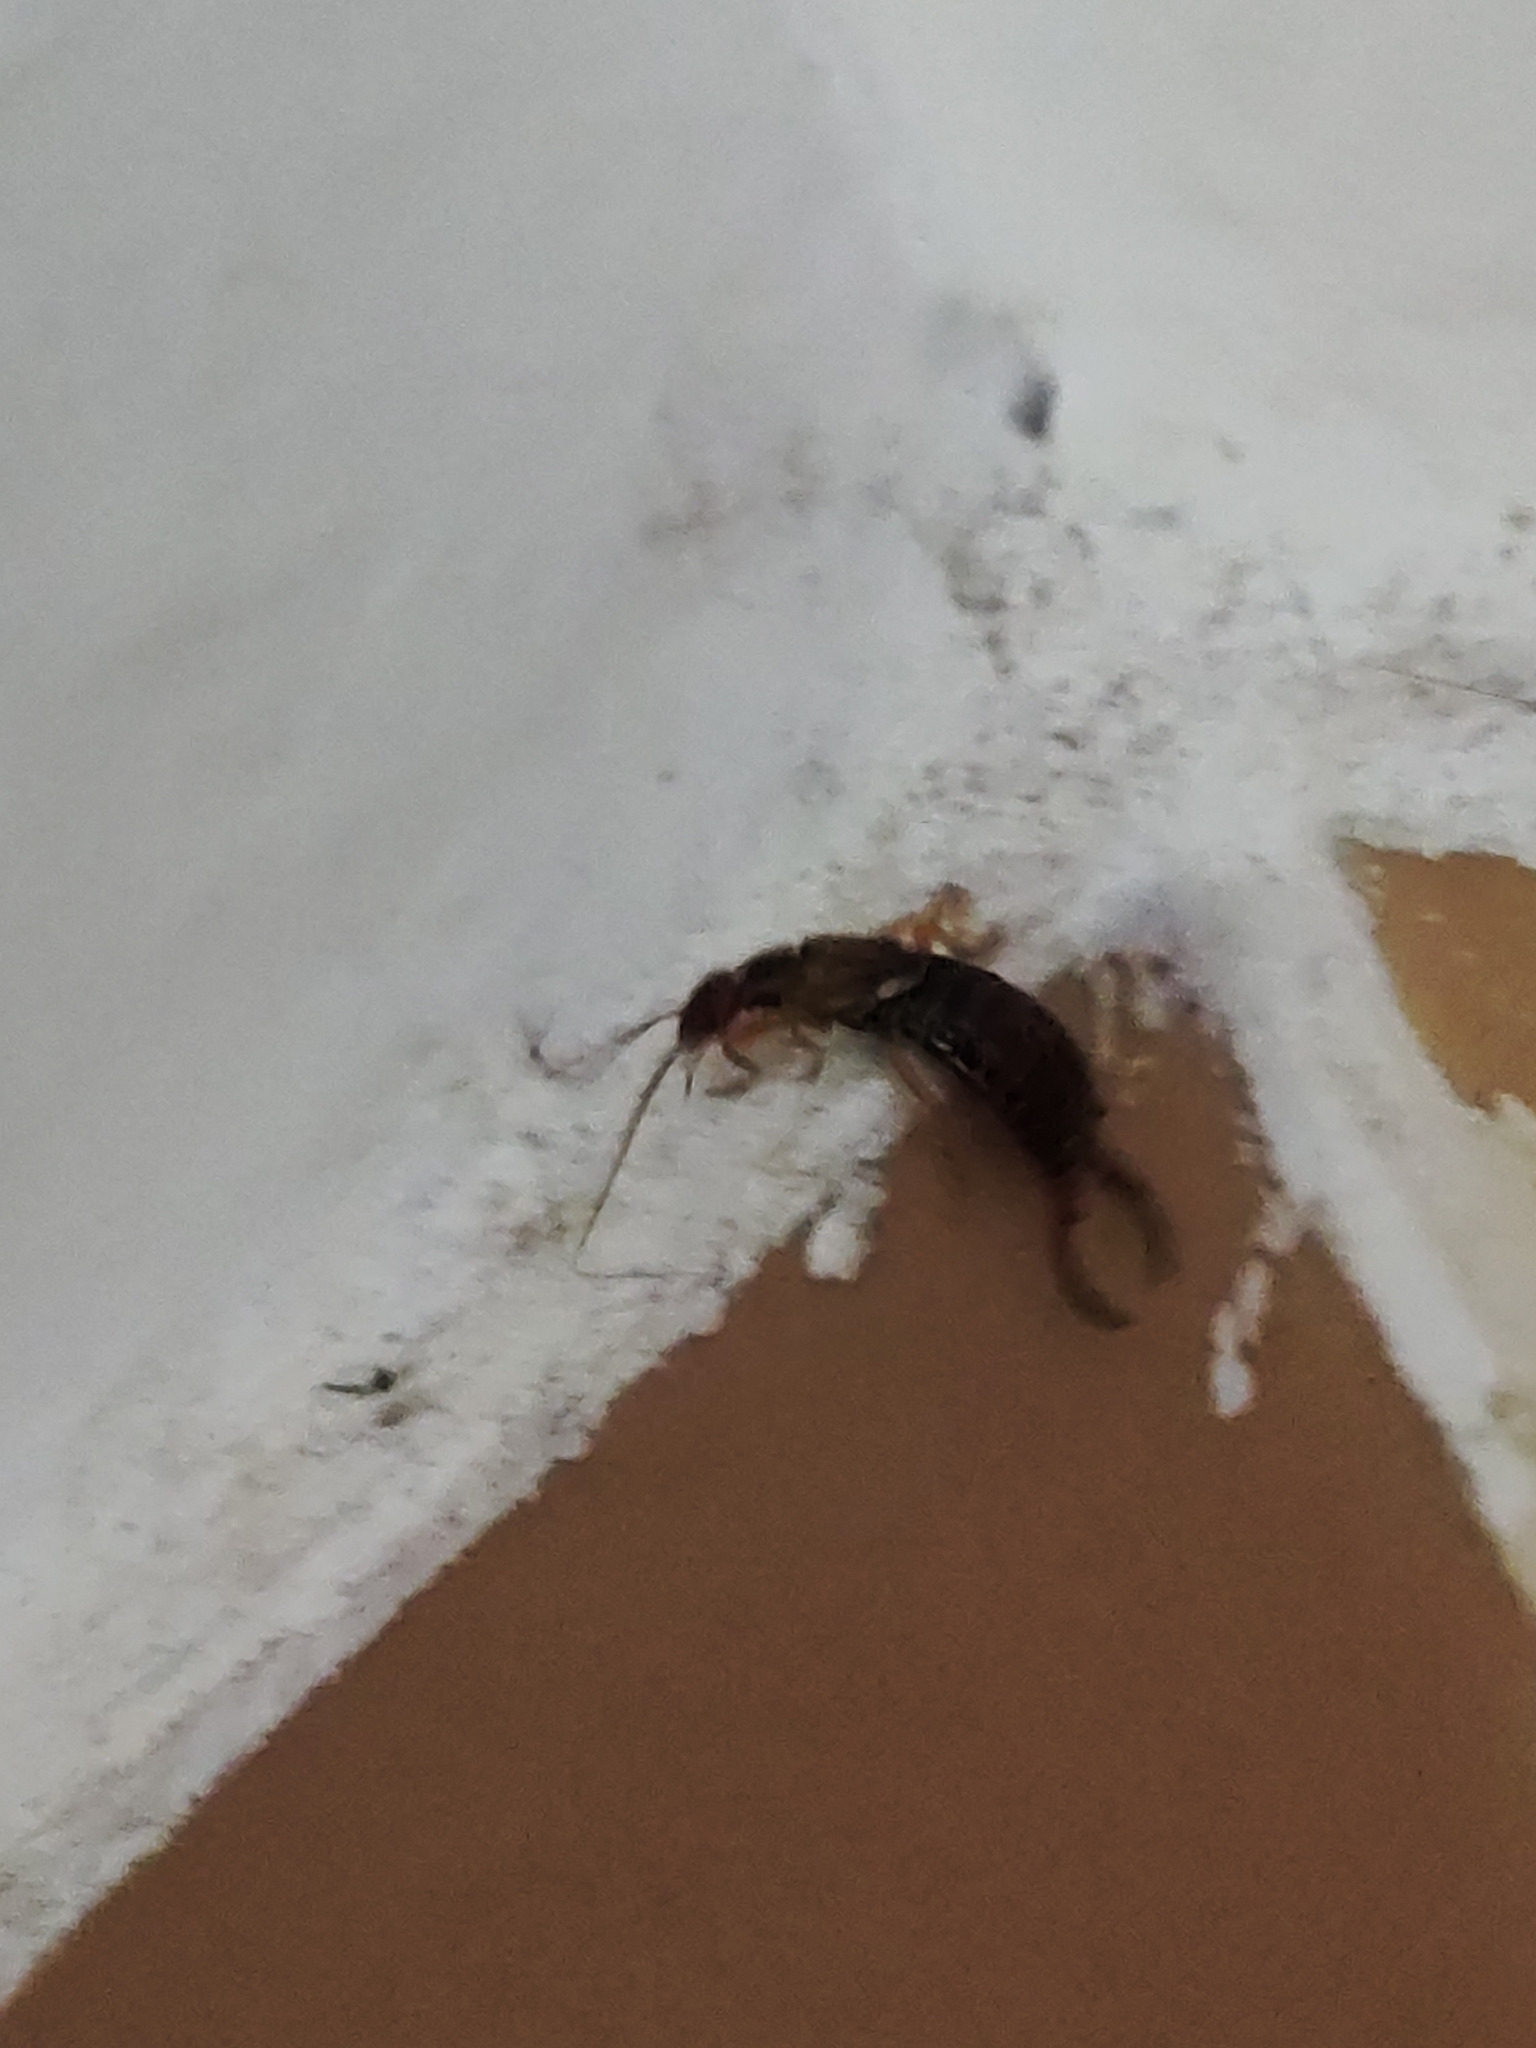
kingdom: Animalia
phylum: Arthropoda
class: Insecta
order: Dermaptera
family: Forficulidae
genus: Forficula
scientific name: Forficula
